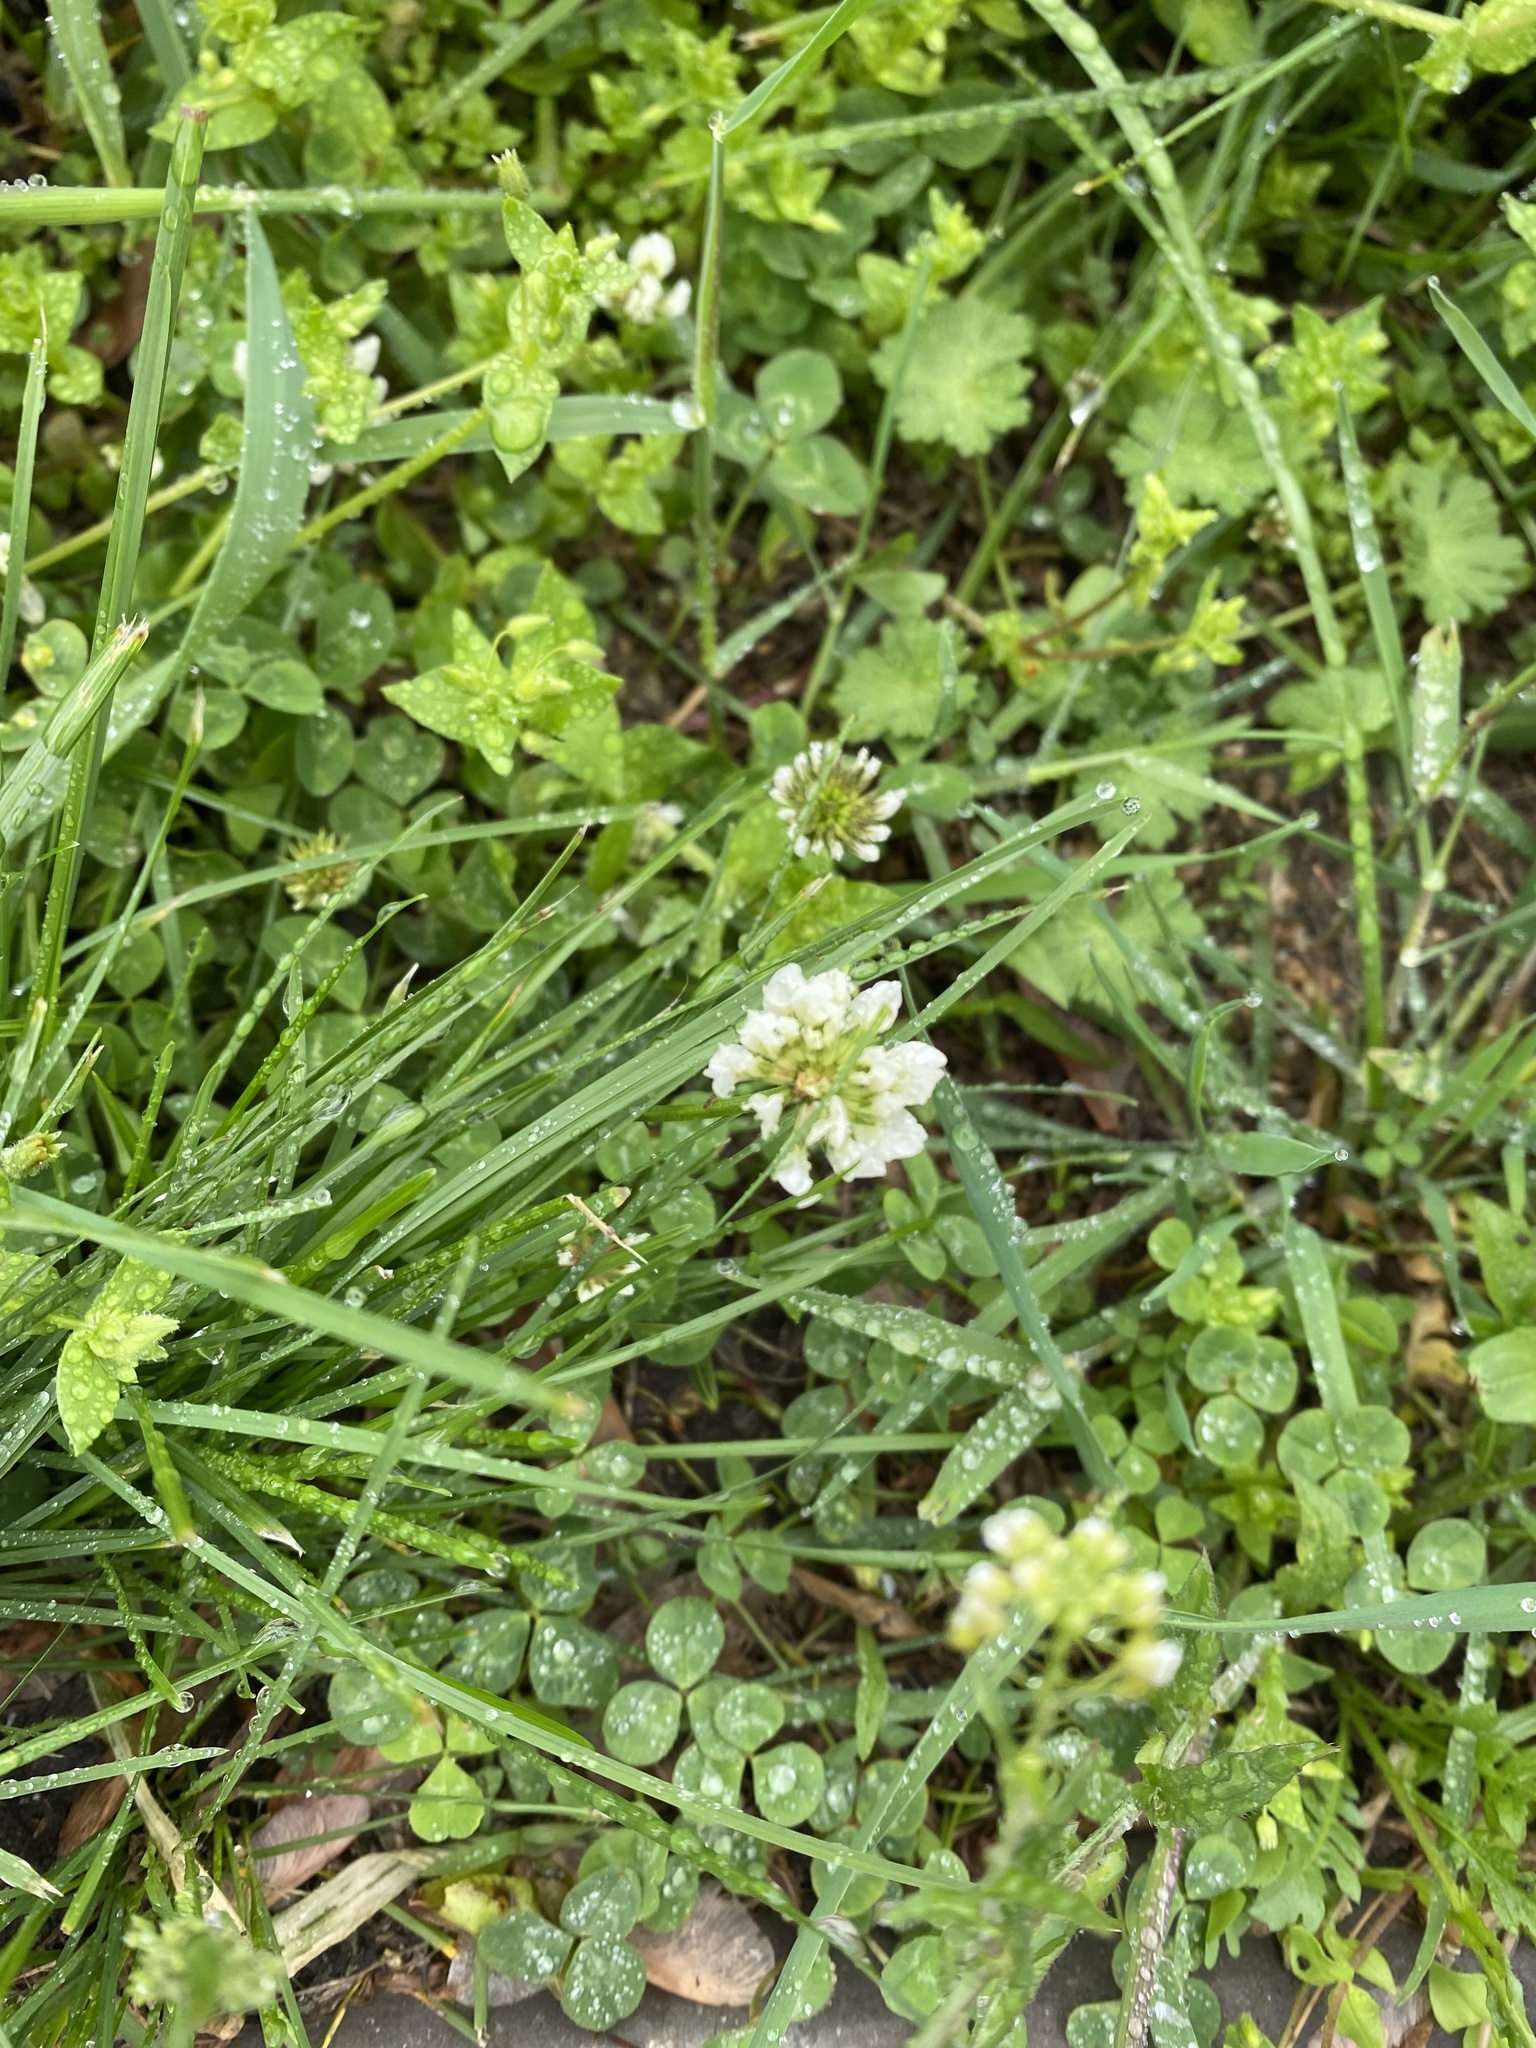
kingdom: Plantae
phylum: Tracheophyta
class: Magnoliopsida
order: Fabales
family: Fabaceae
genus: Trifolium
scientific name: Trifolium repens
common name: White clover
